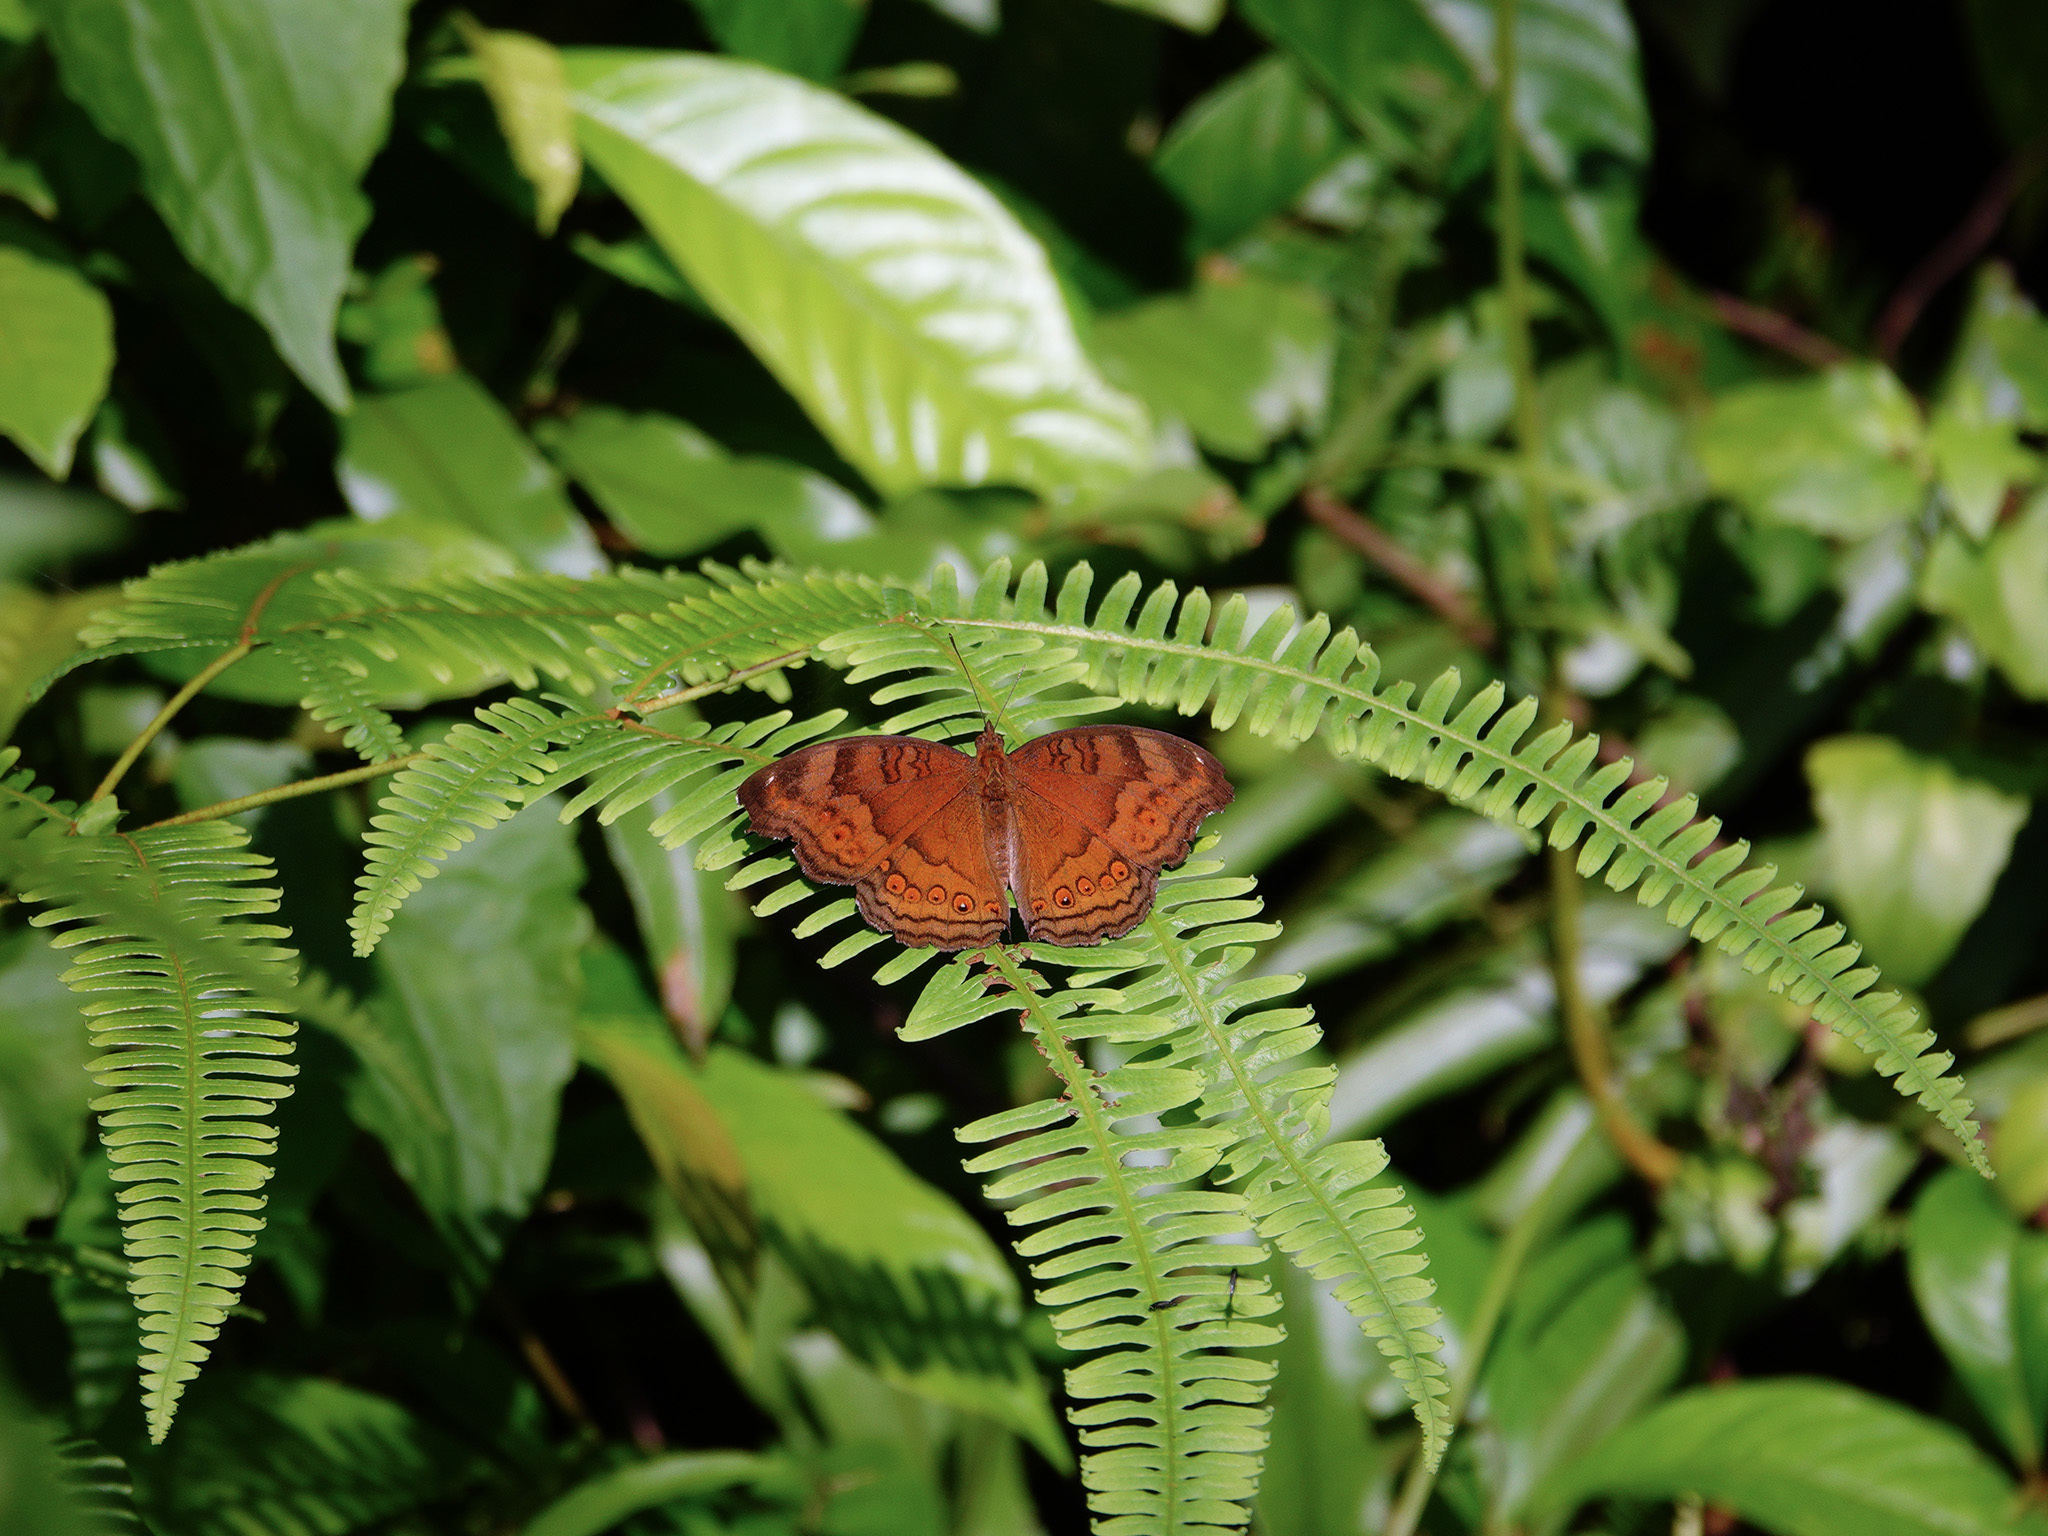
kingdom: Animalia
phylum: Arthropoda
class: Insecta
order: Lepidoptera
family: Nymphalidae
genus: Junonia
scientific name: Junonia hedonia
